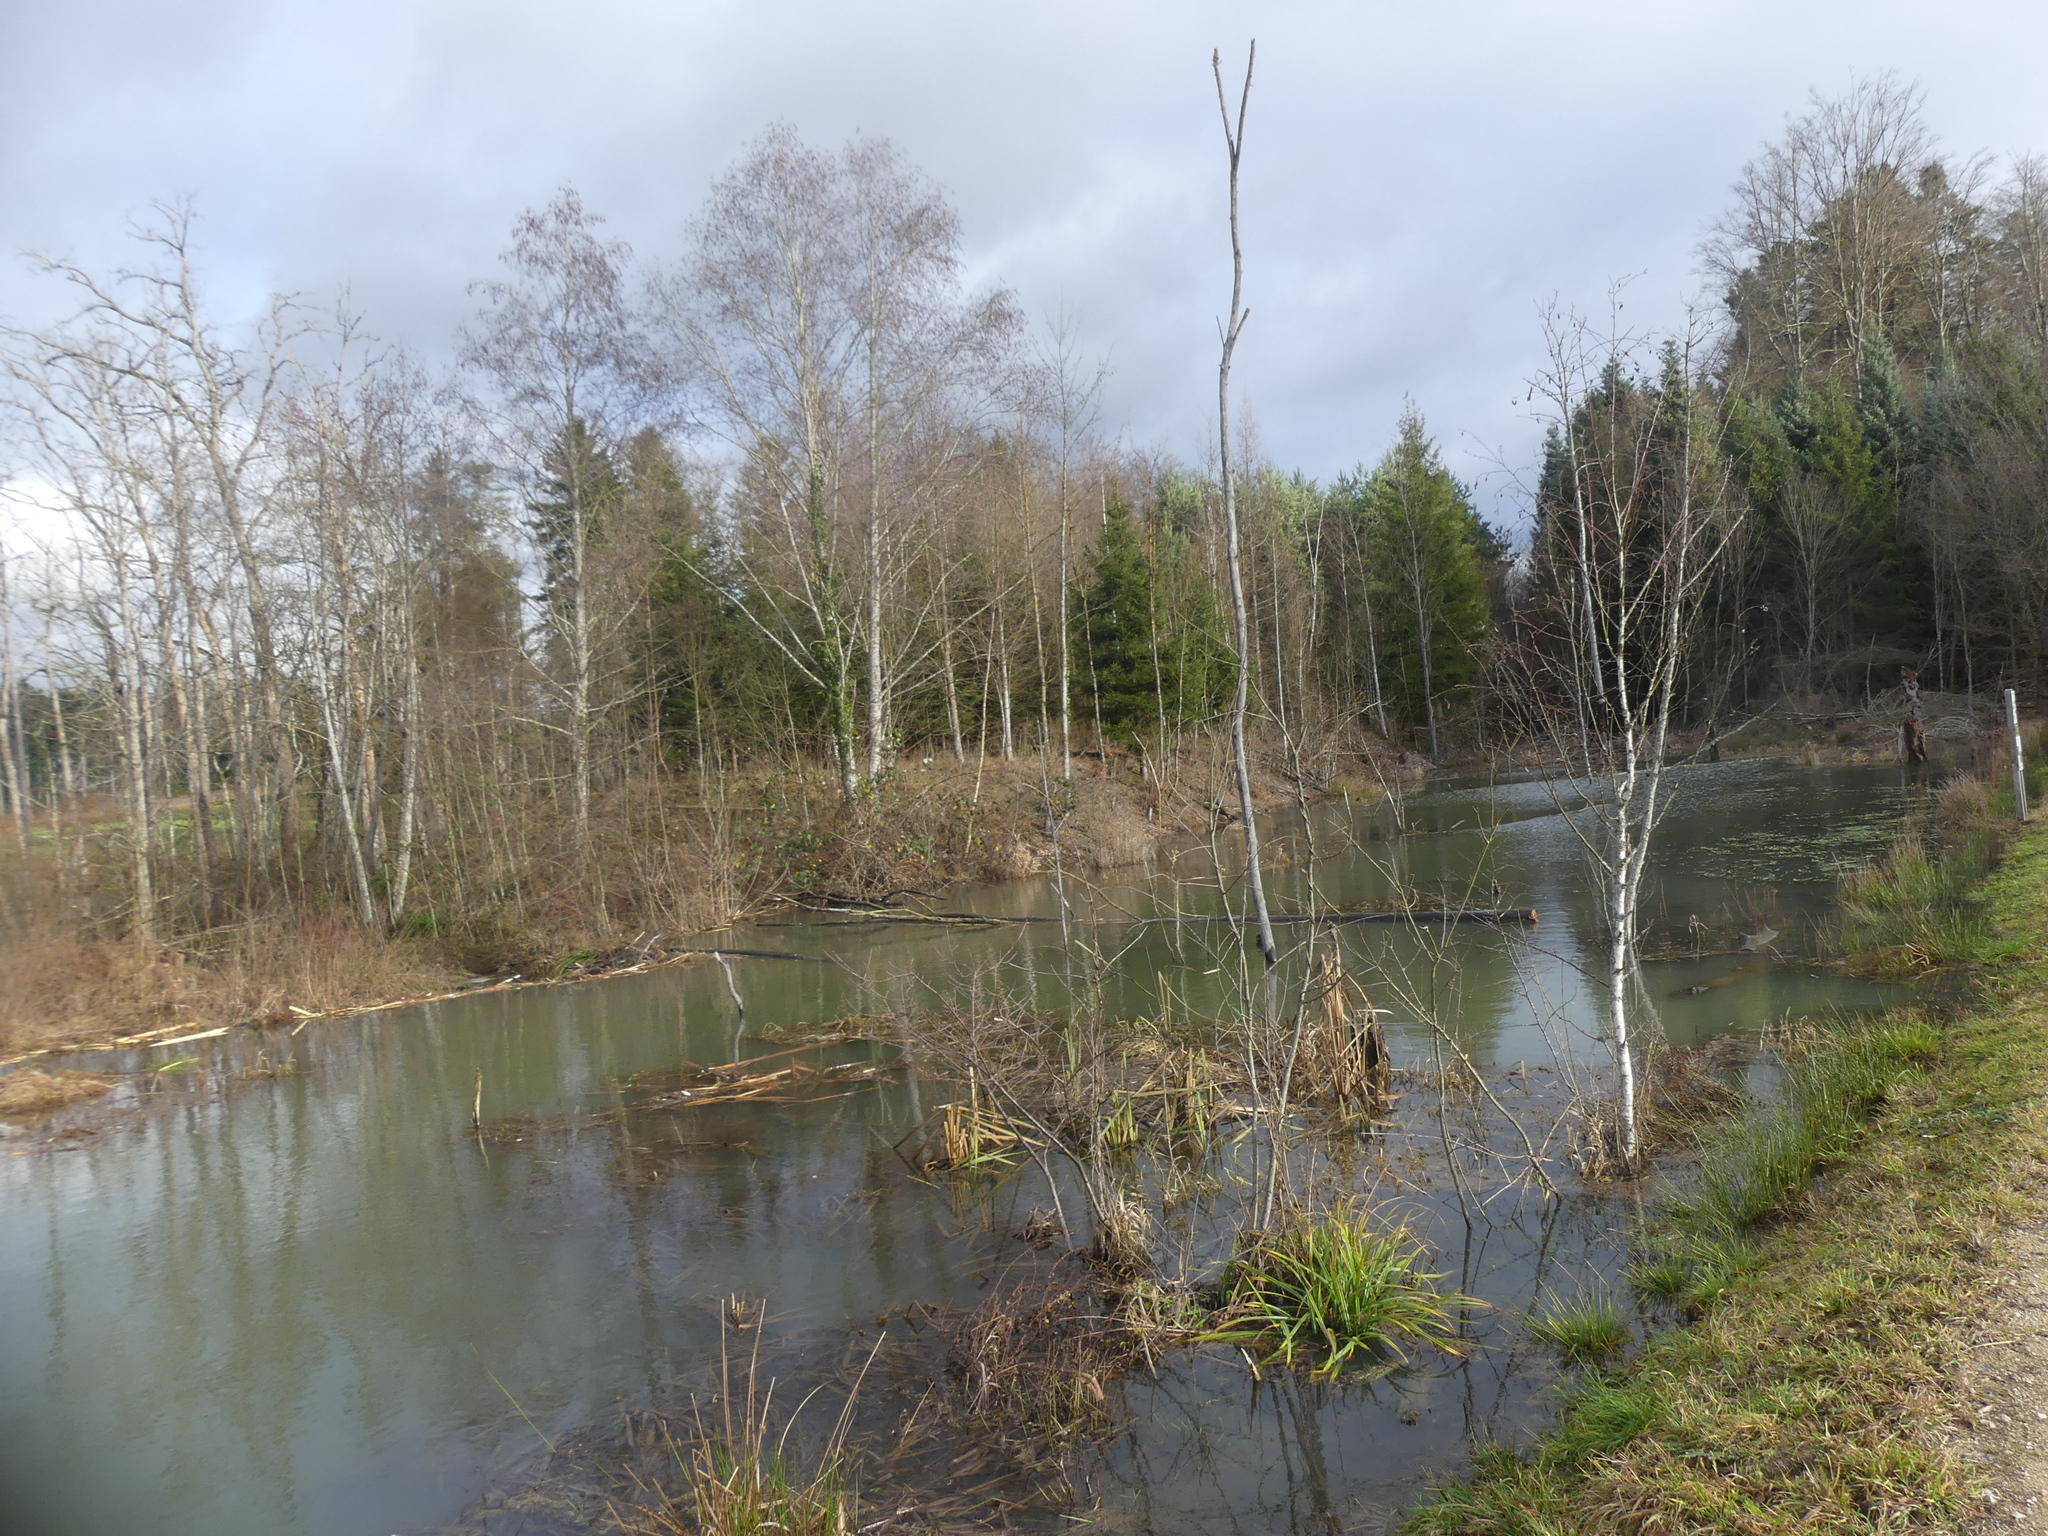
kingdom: Animalia
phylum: Chordata
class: Mammalia
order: Rodentia
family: Castoridae
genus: Castor
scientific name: Castor fiber
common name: Eurasian beaver
